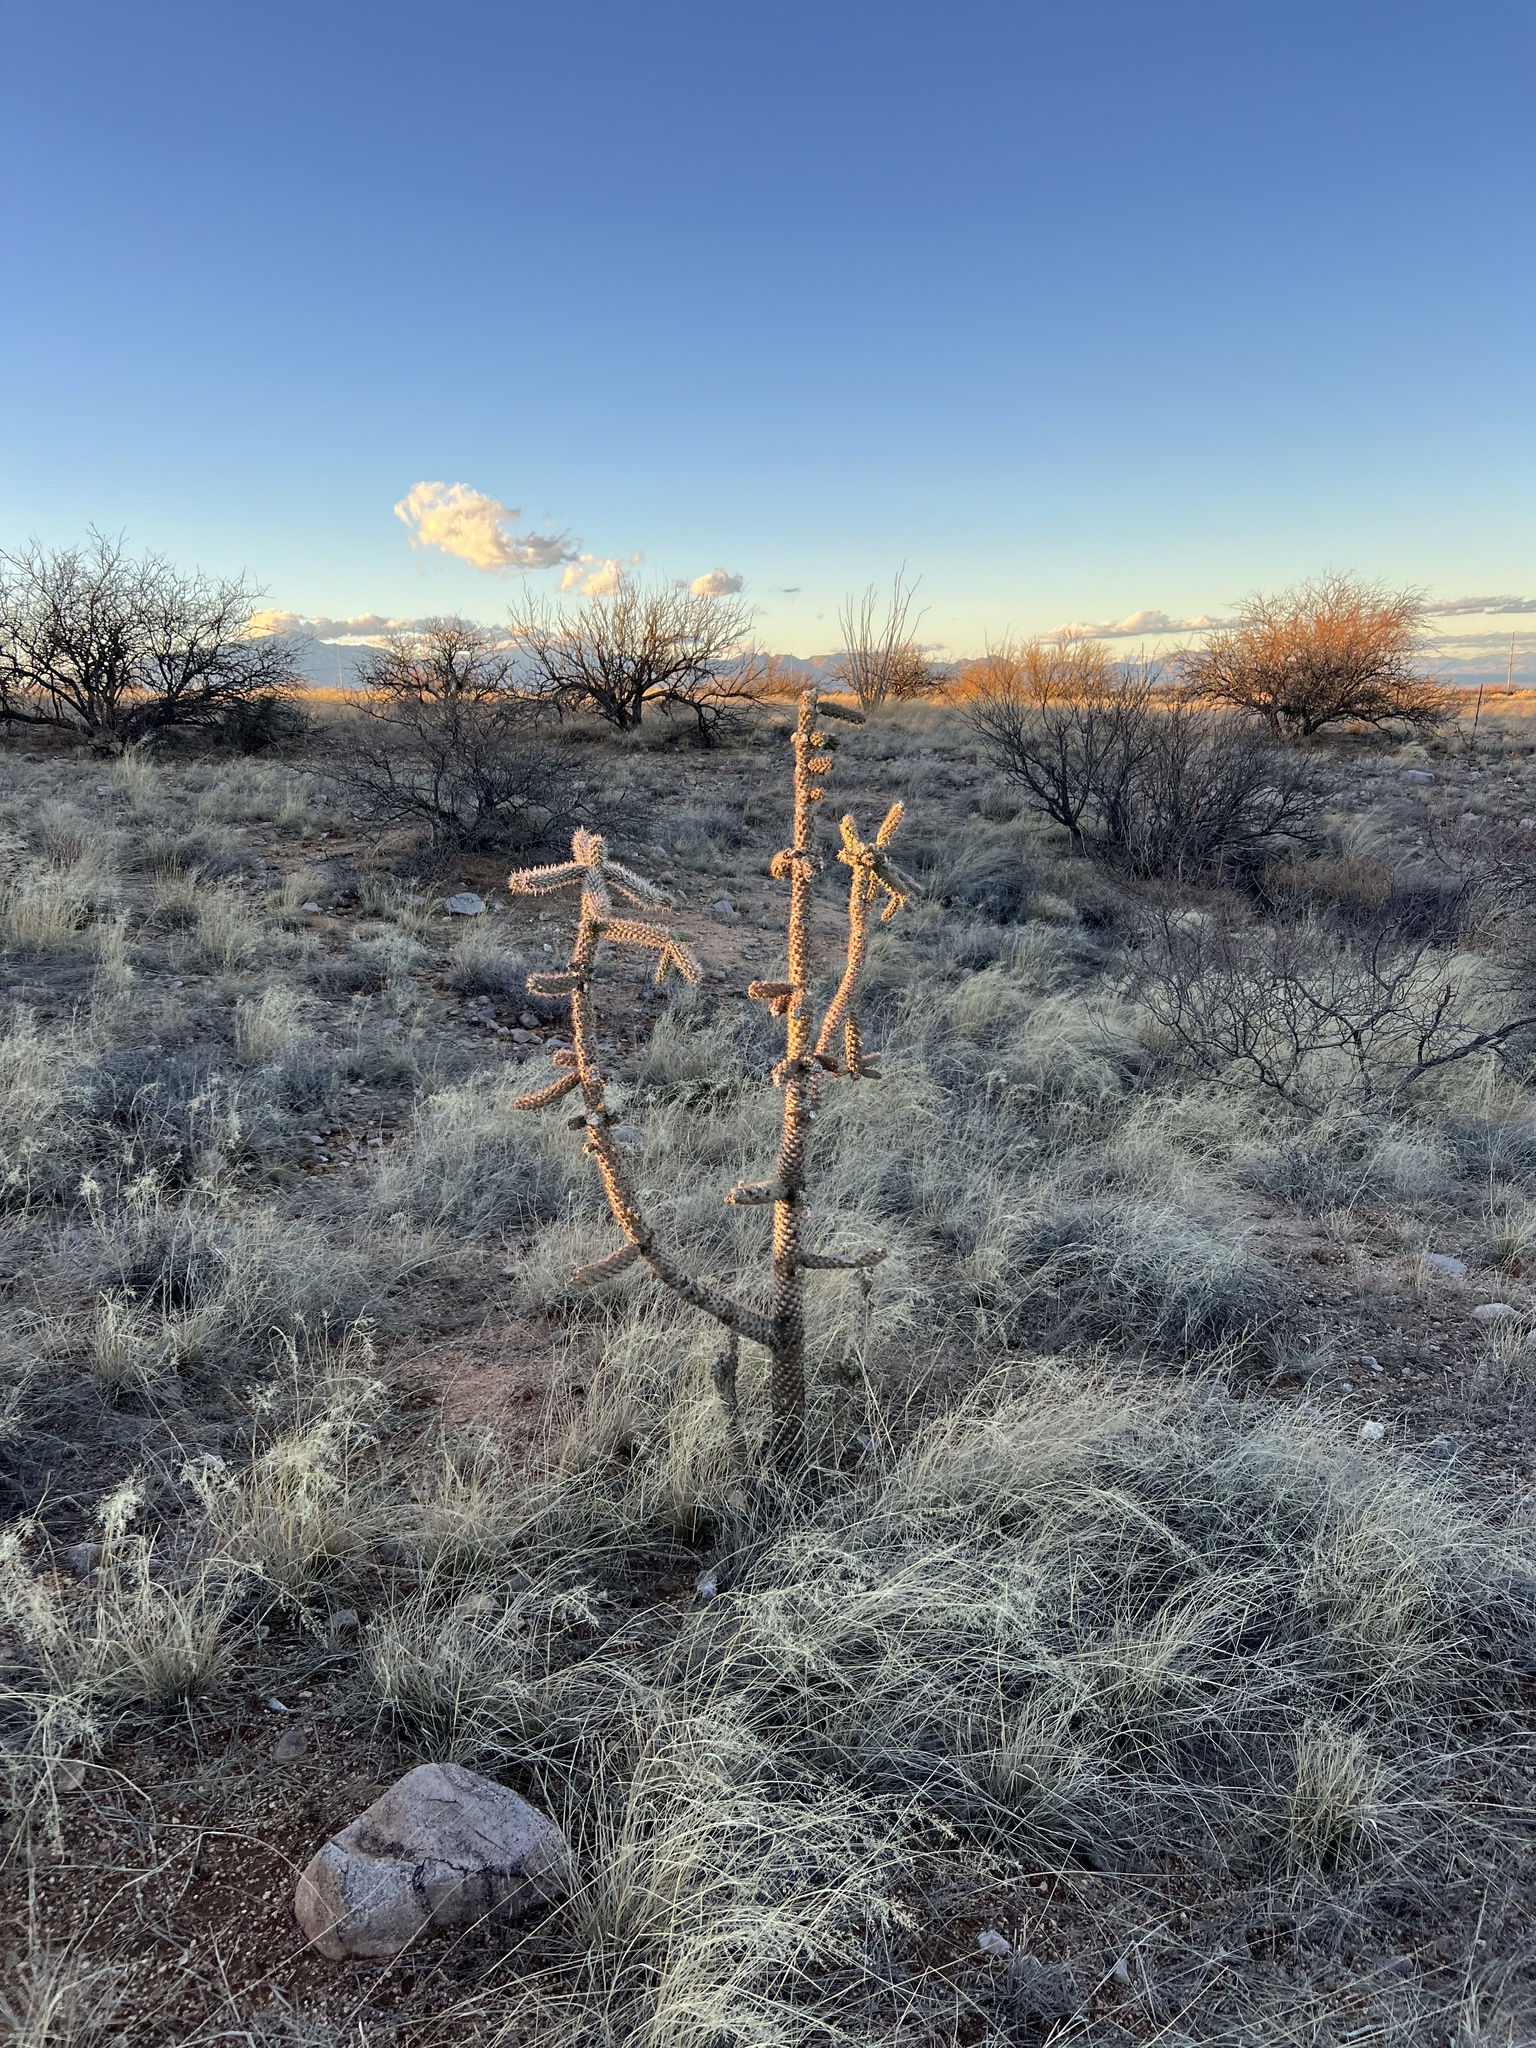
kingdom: Plantae
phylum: Tracheophyta
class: Magnoliopsida
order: Caryophyllales
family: Cactaceae
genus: Cylindropuntia
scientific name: Cylindropuntia imbricata
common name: Candelabrum cactus
